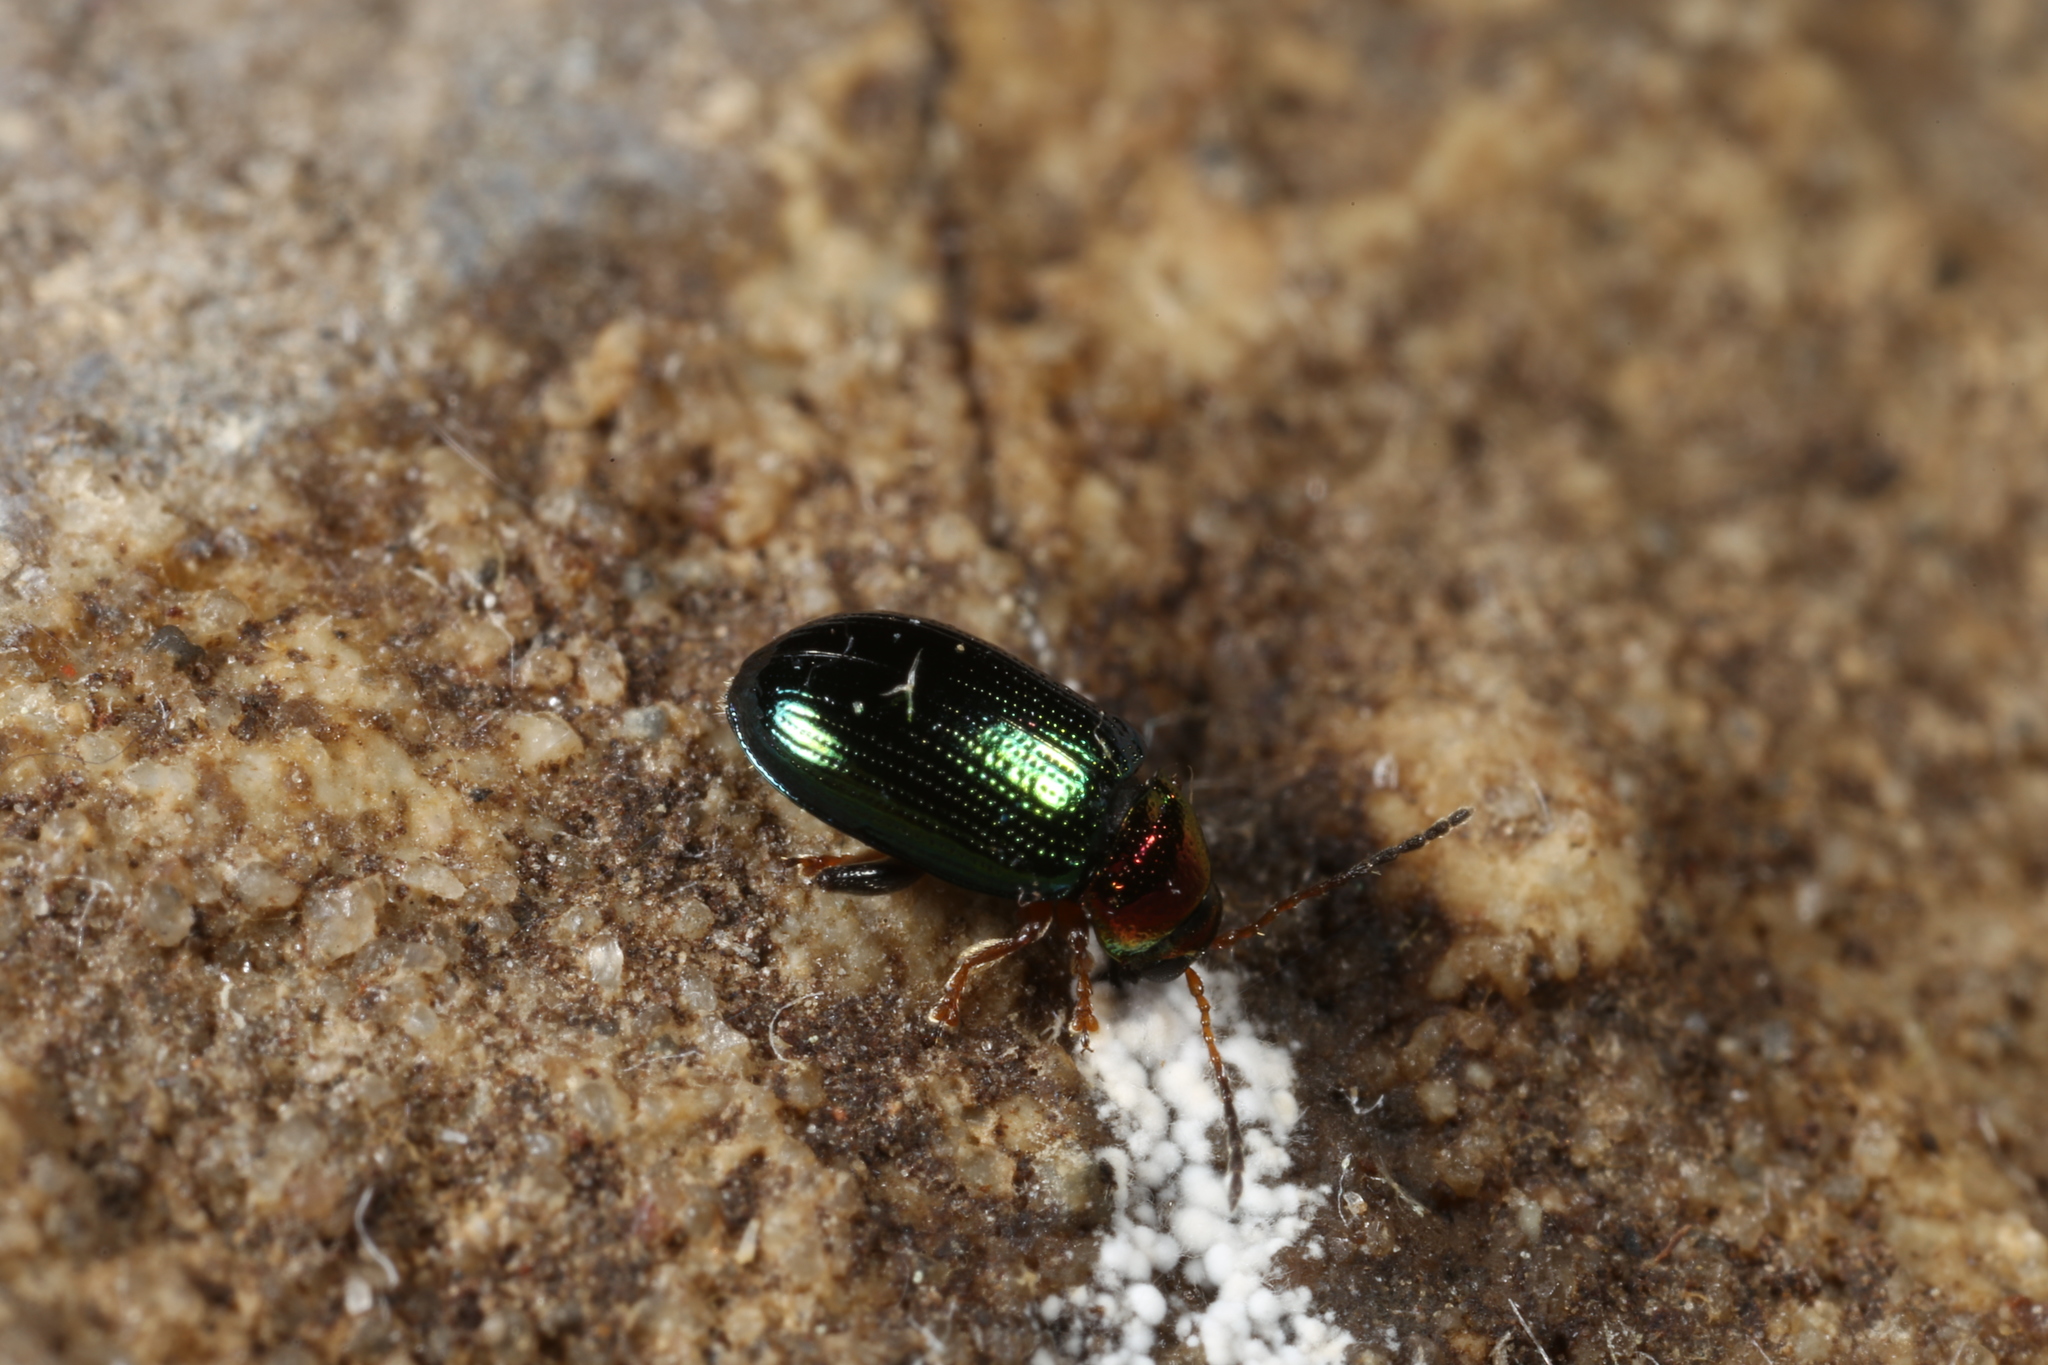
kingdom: Animalia
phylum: Arthropoda
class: Insecta
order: Coleoptera
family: Chrysomelidae
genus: Crepidodera
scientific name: Crepidodera aurata
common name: Willow flea beetle
